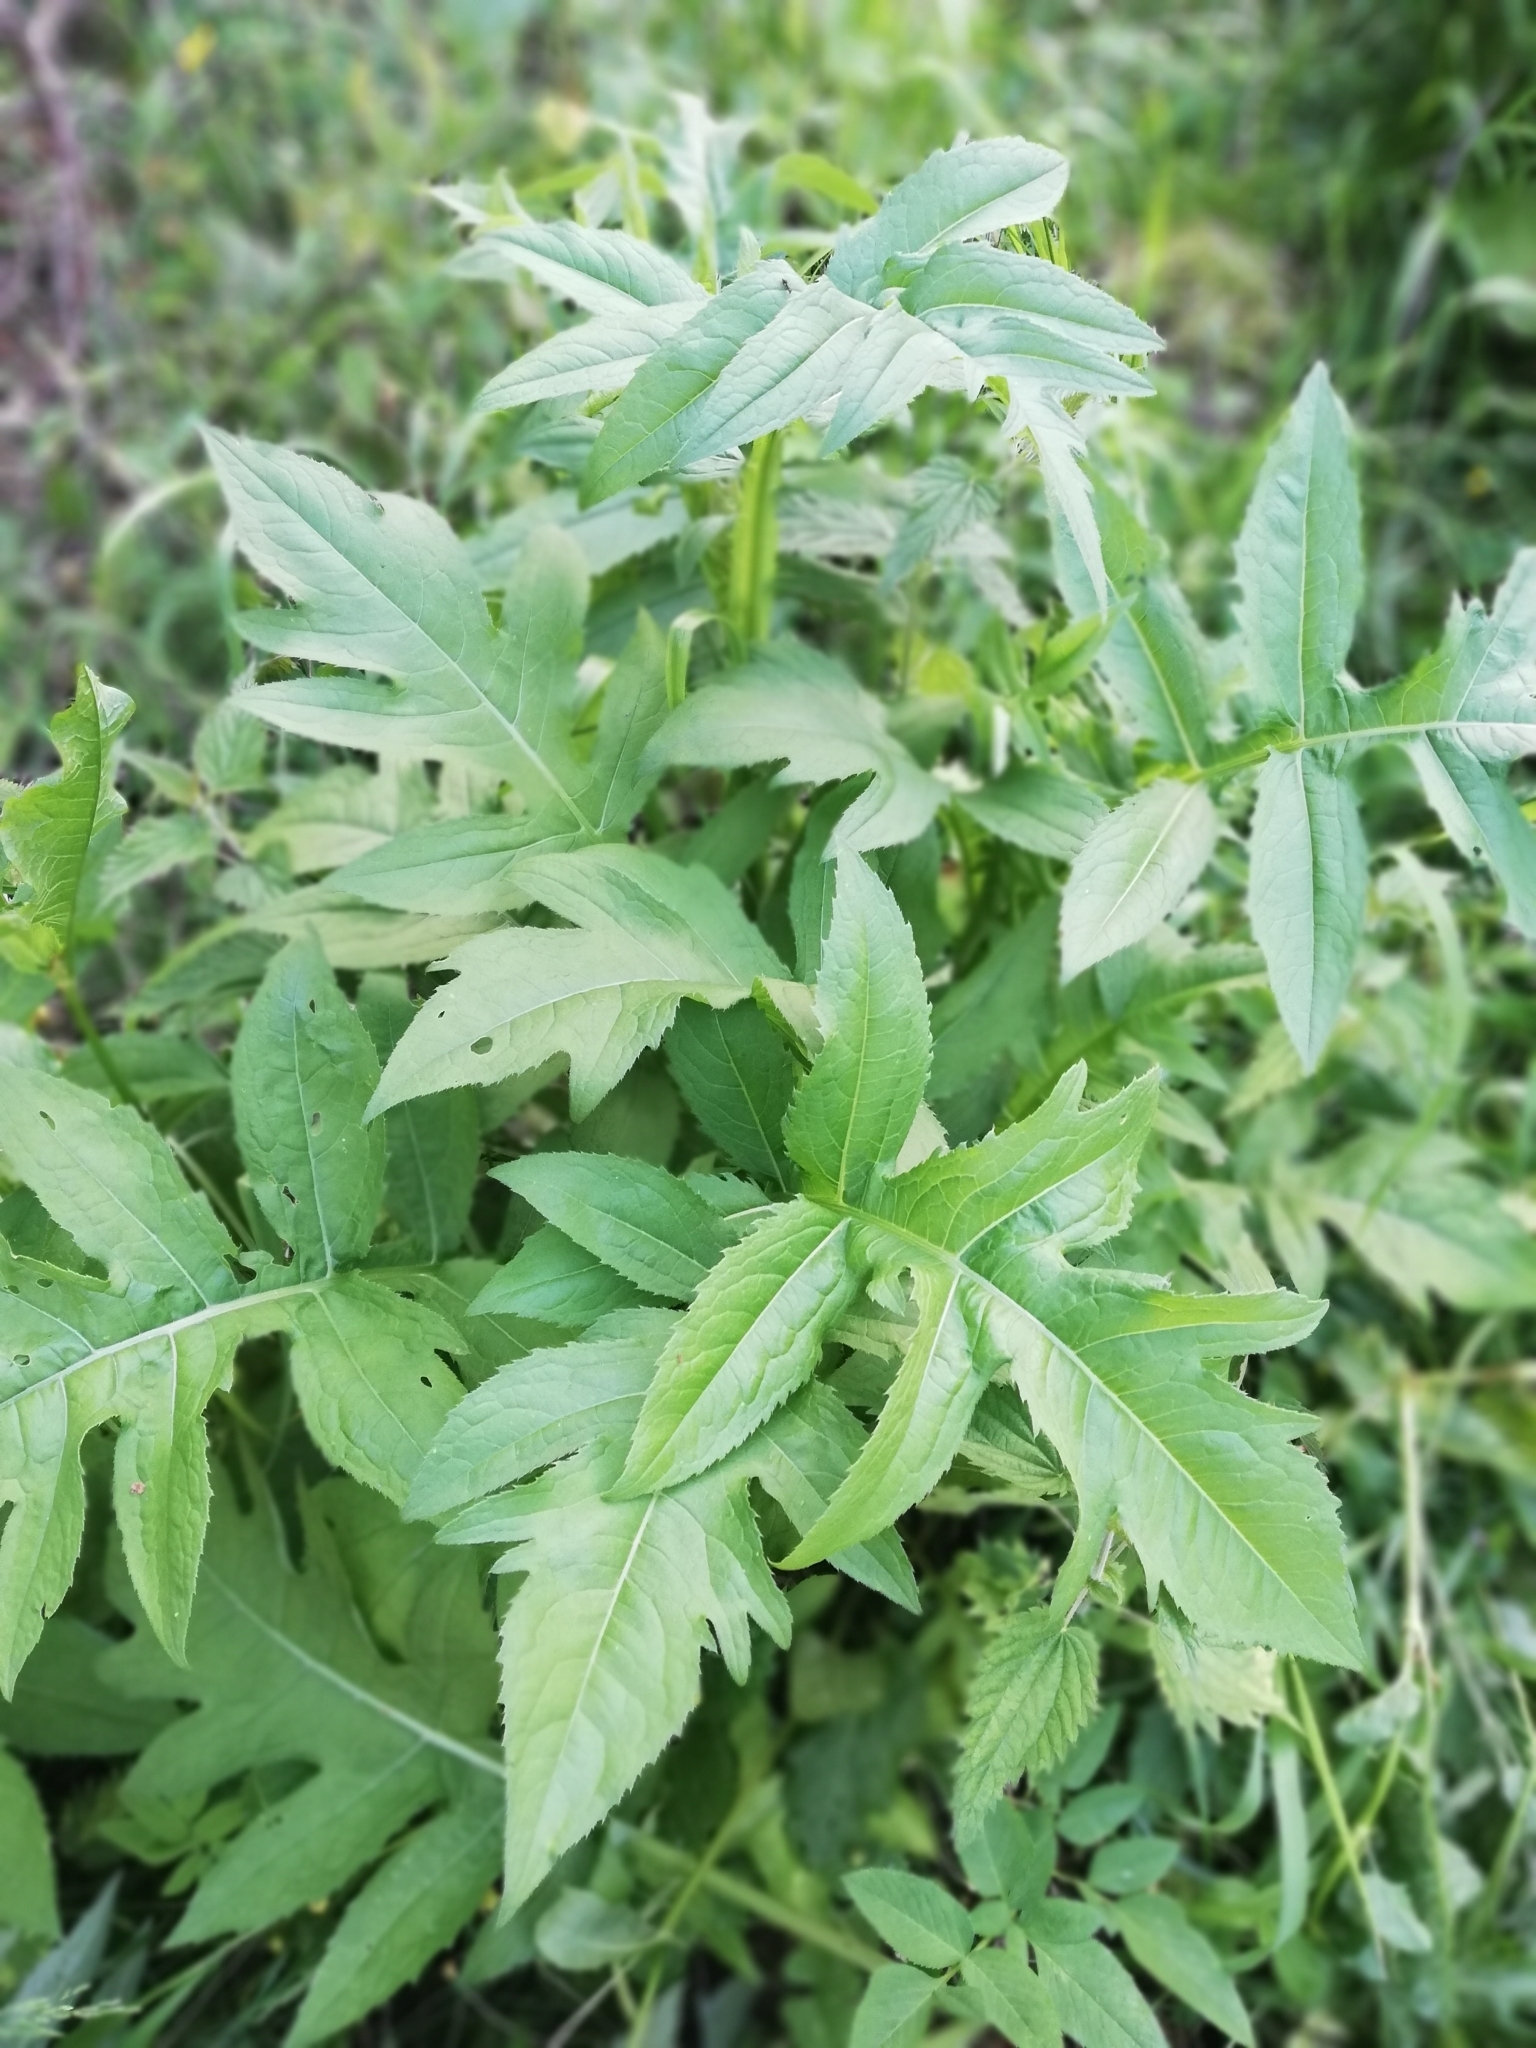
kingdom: Plantae
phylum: Tracheophyta
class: Magnoliopsida
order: Asterales
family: Asteraceae
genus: Cirsium
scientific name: Cirsium oleraceum
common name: Cabbage thistle
